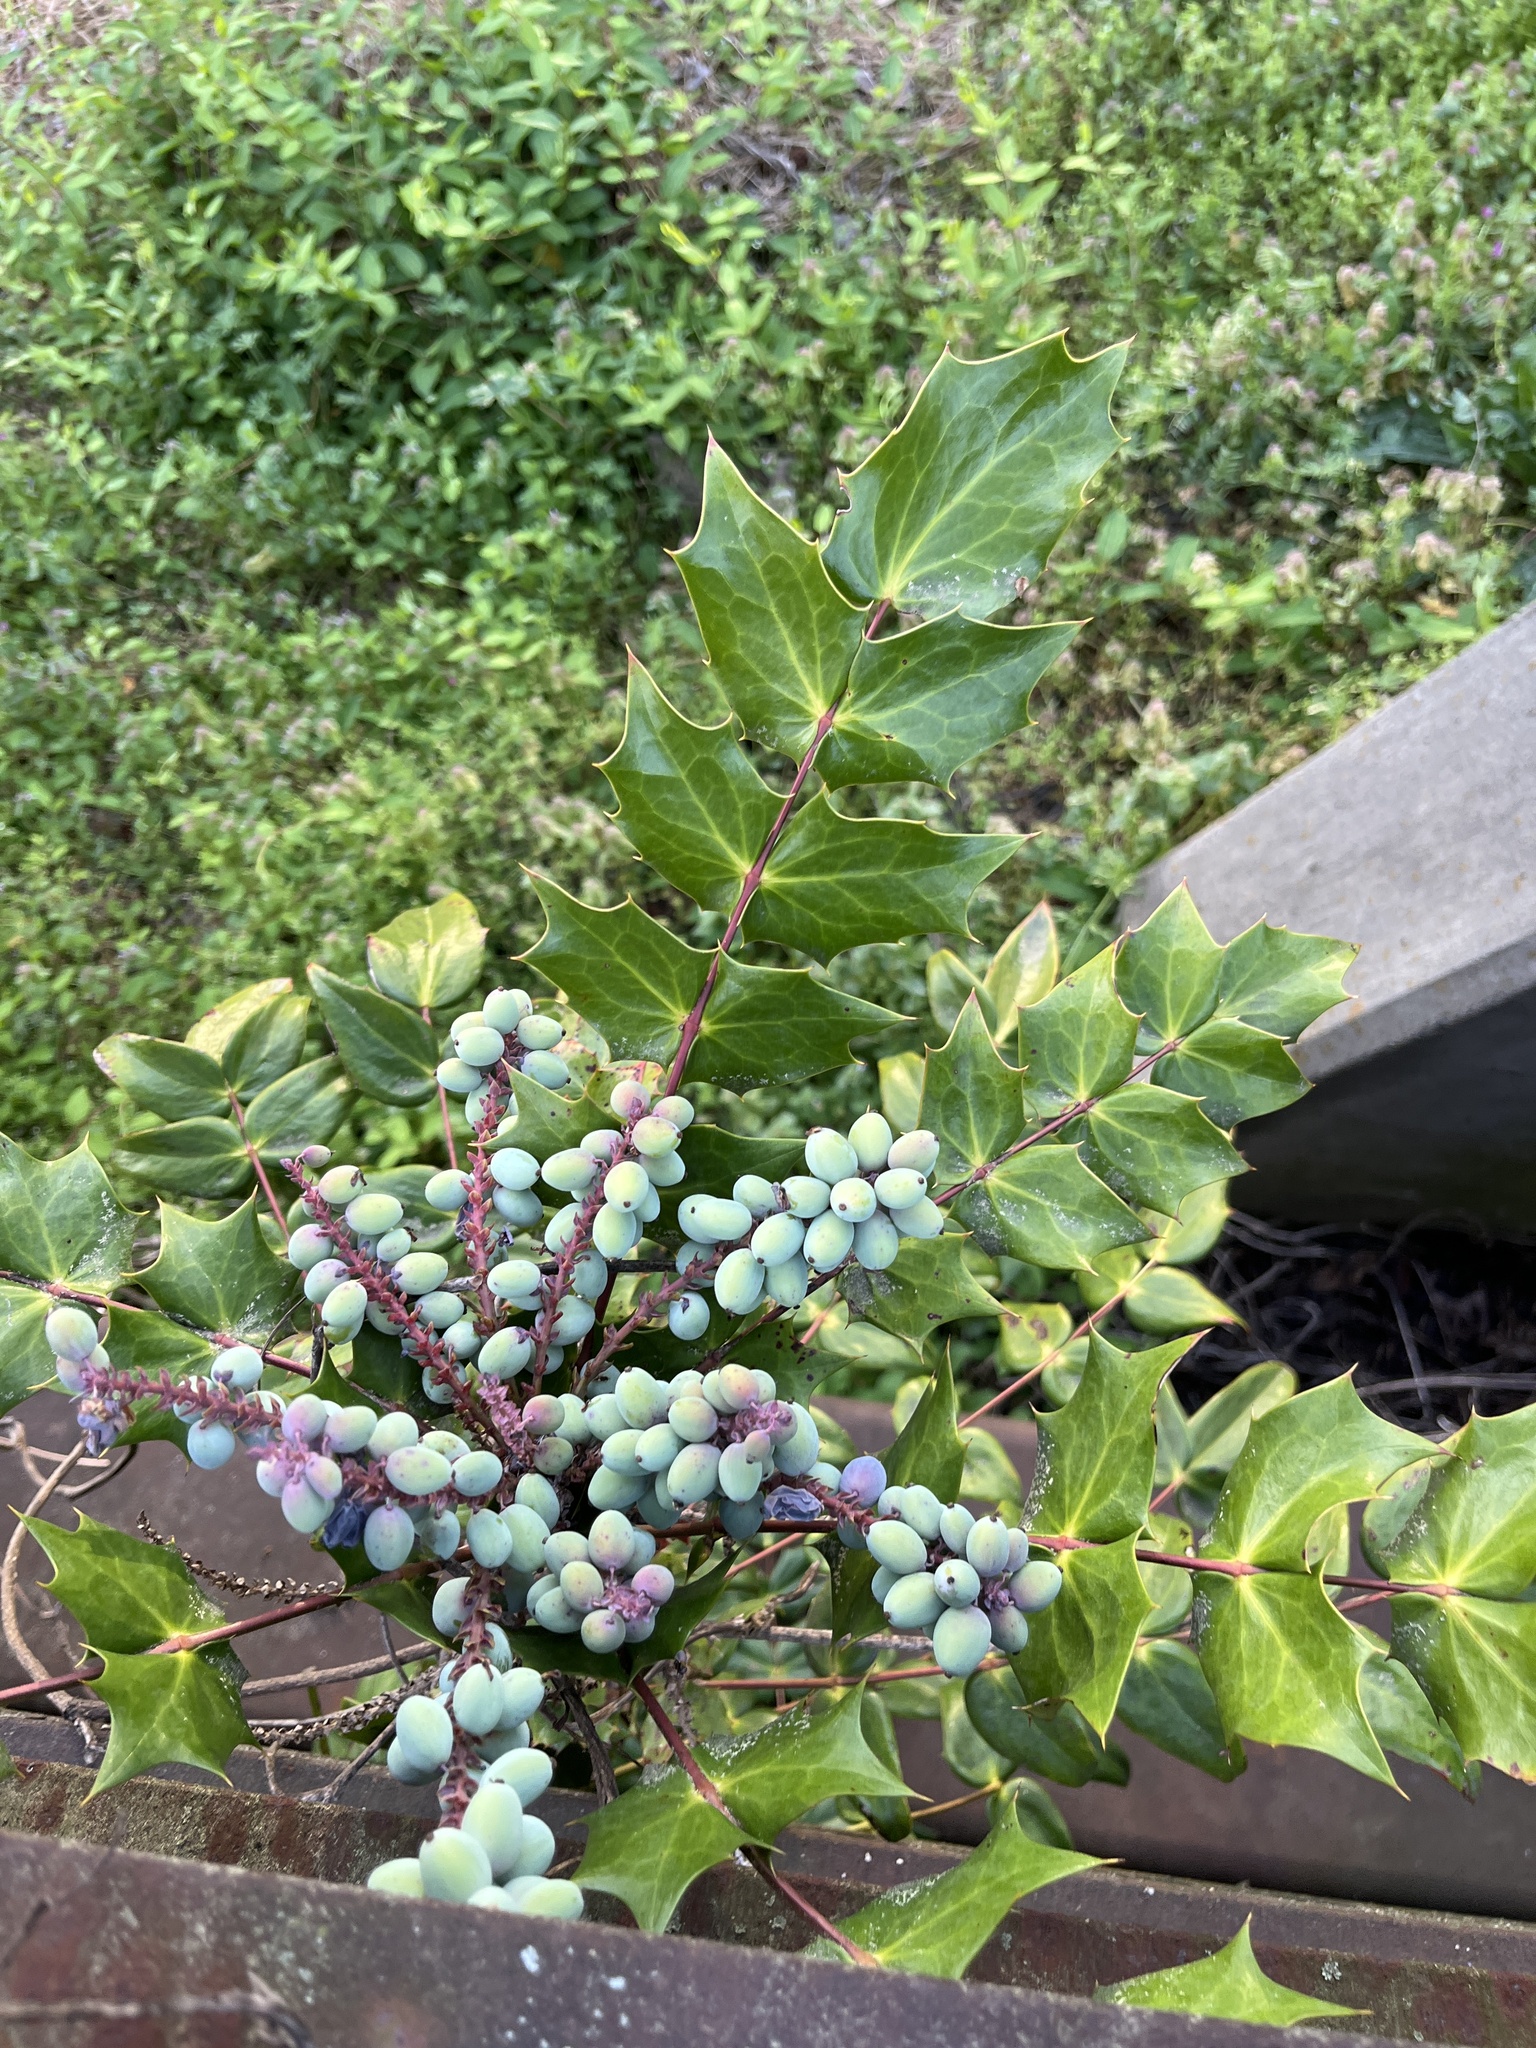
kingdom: Plantae
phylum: Tracheophyta
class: Magnoliopsida
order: Ranunculales
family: Berberidaceae
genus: Mahonia
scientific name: Mahonia bealei
